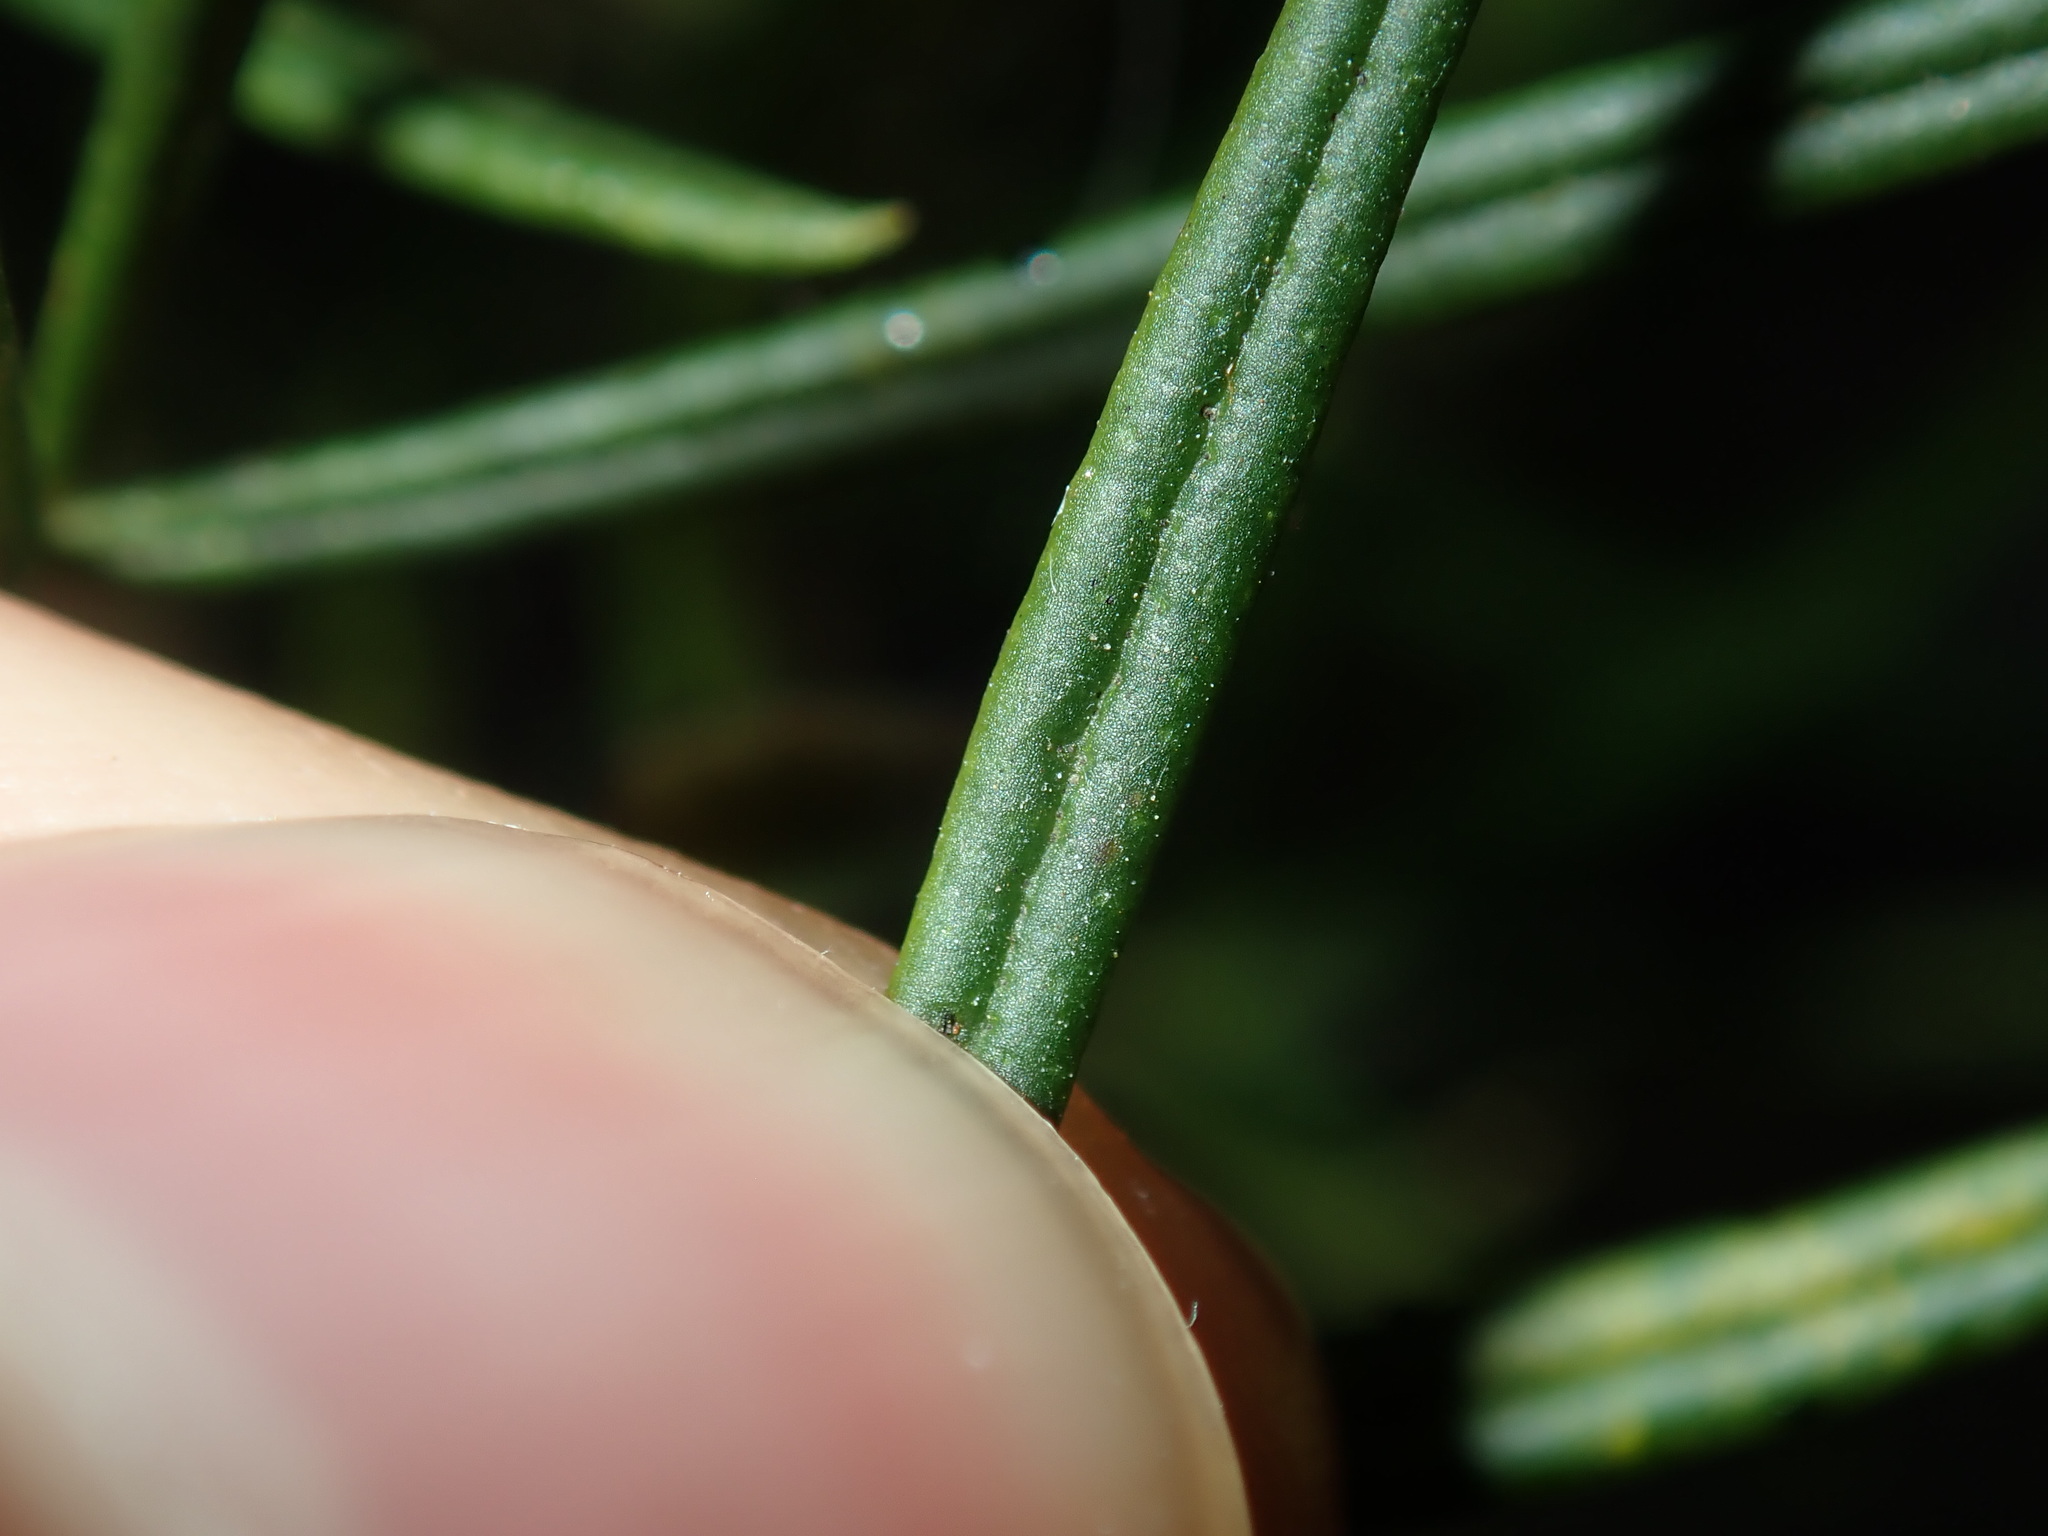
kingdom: Plantae
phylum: Tracheophyta
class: Magnoliopsida
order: Sapindales
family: Rutaceae
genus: Zieria
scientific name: Zieria laxiflora
